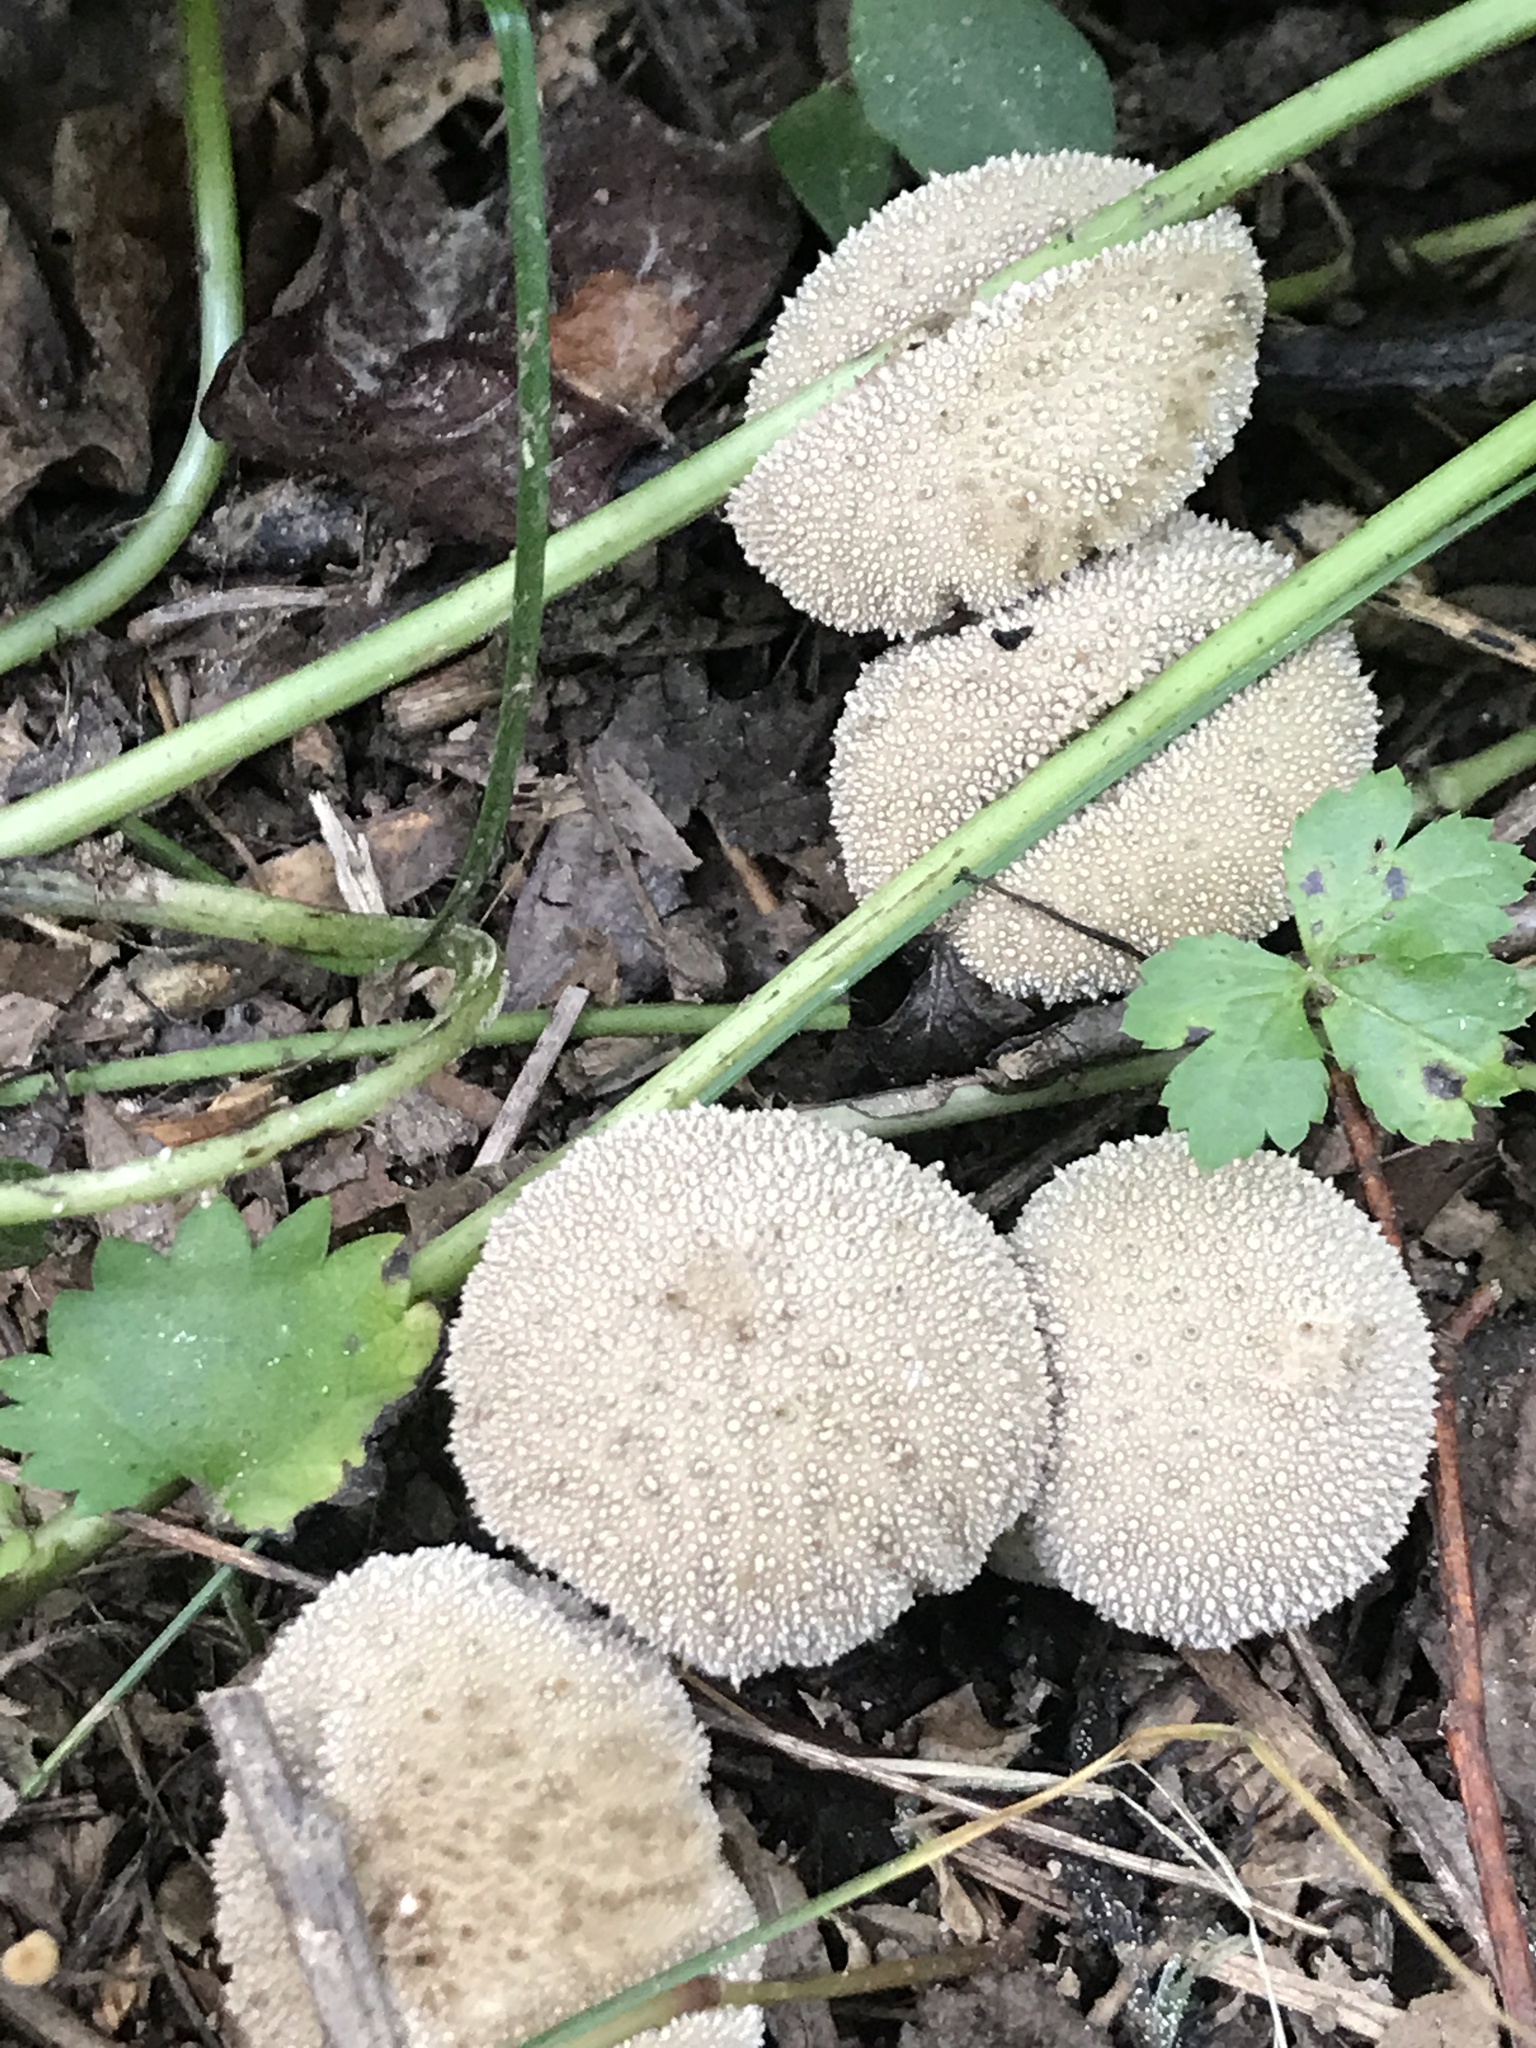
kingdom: Fungi
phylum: Basidiomycota
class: Agaricomycetes
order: Agaricales
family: Lycoperdaceae
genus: Lycoperdon
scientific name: Lycoperdon perlatum
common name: Common puffball
